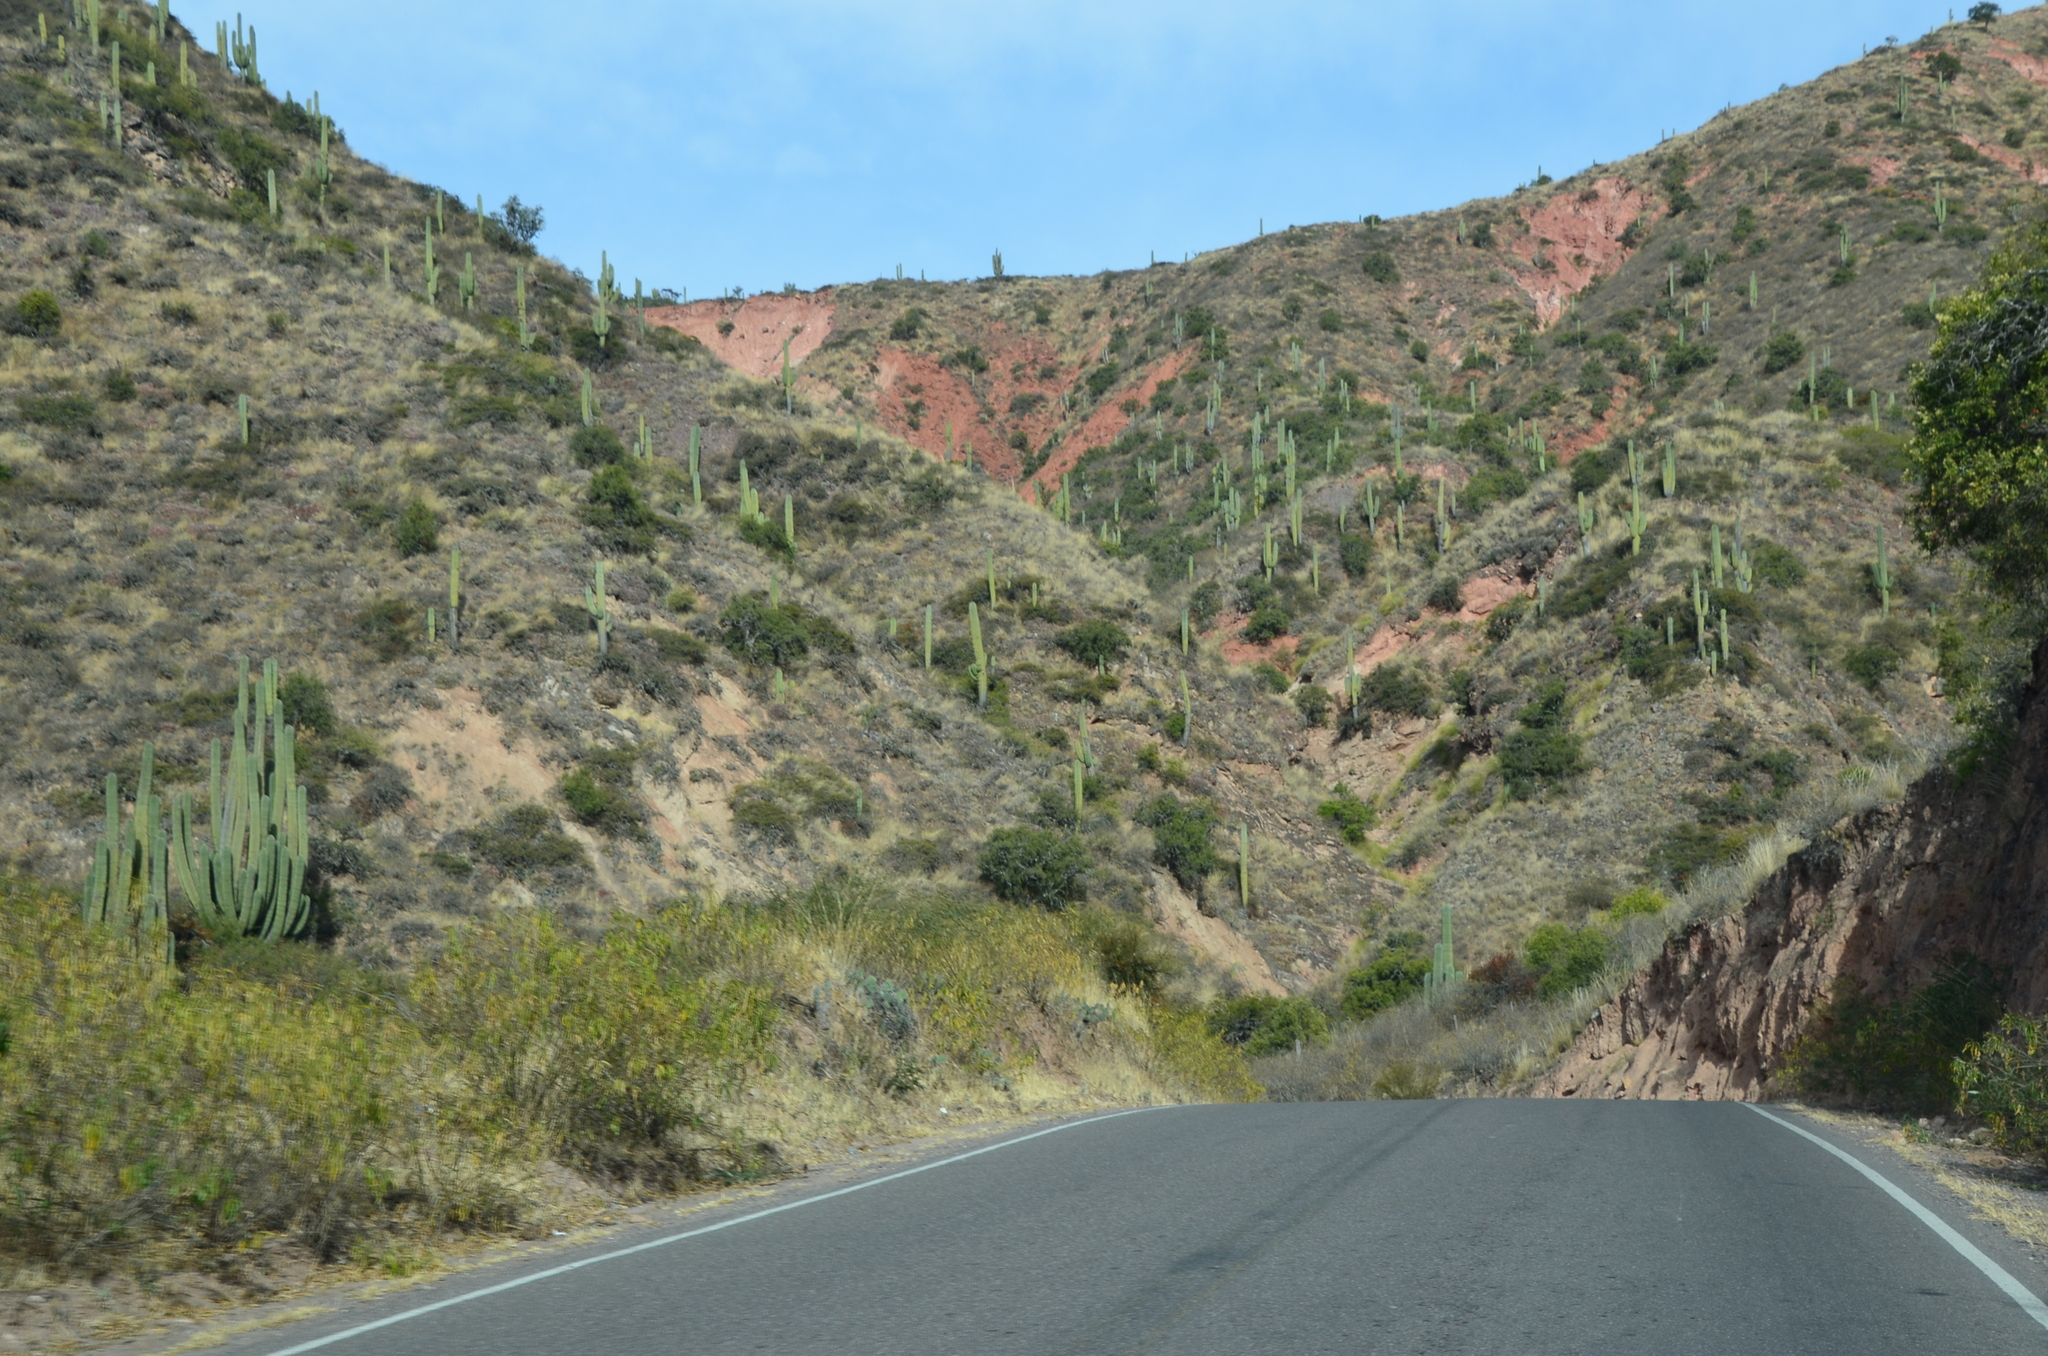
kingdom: Plantae
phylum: Tracheophyta
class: Magnoliopsida
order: Caryophyllales
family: Cactaceae
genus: Leucostele
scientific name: Leucostele terscheckii
